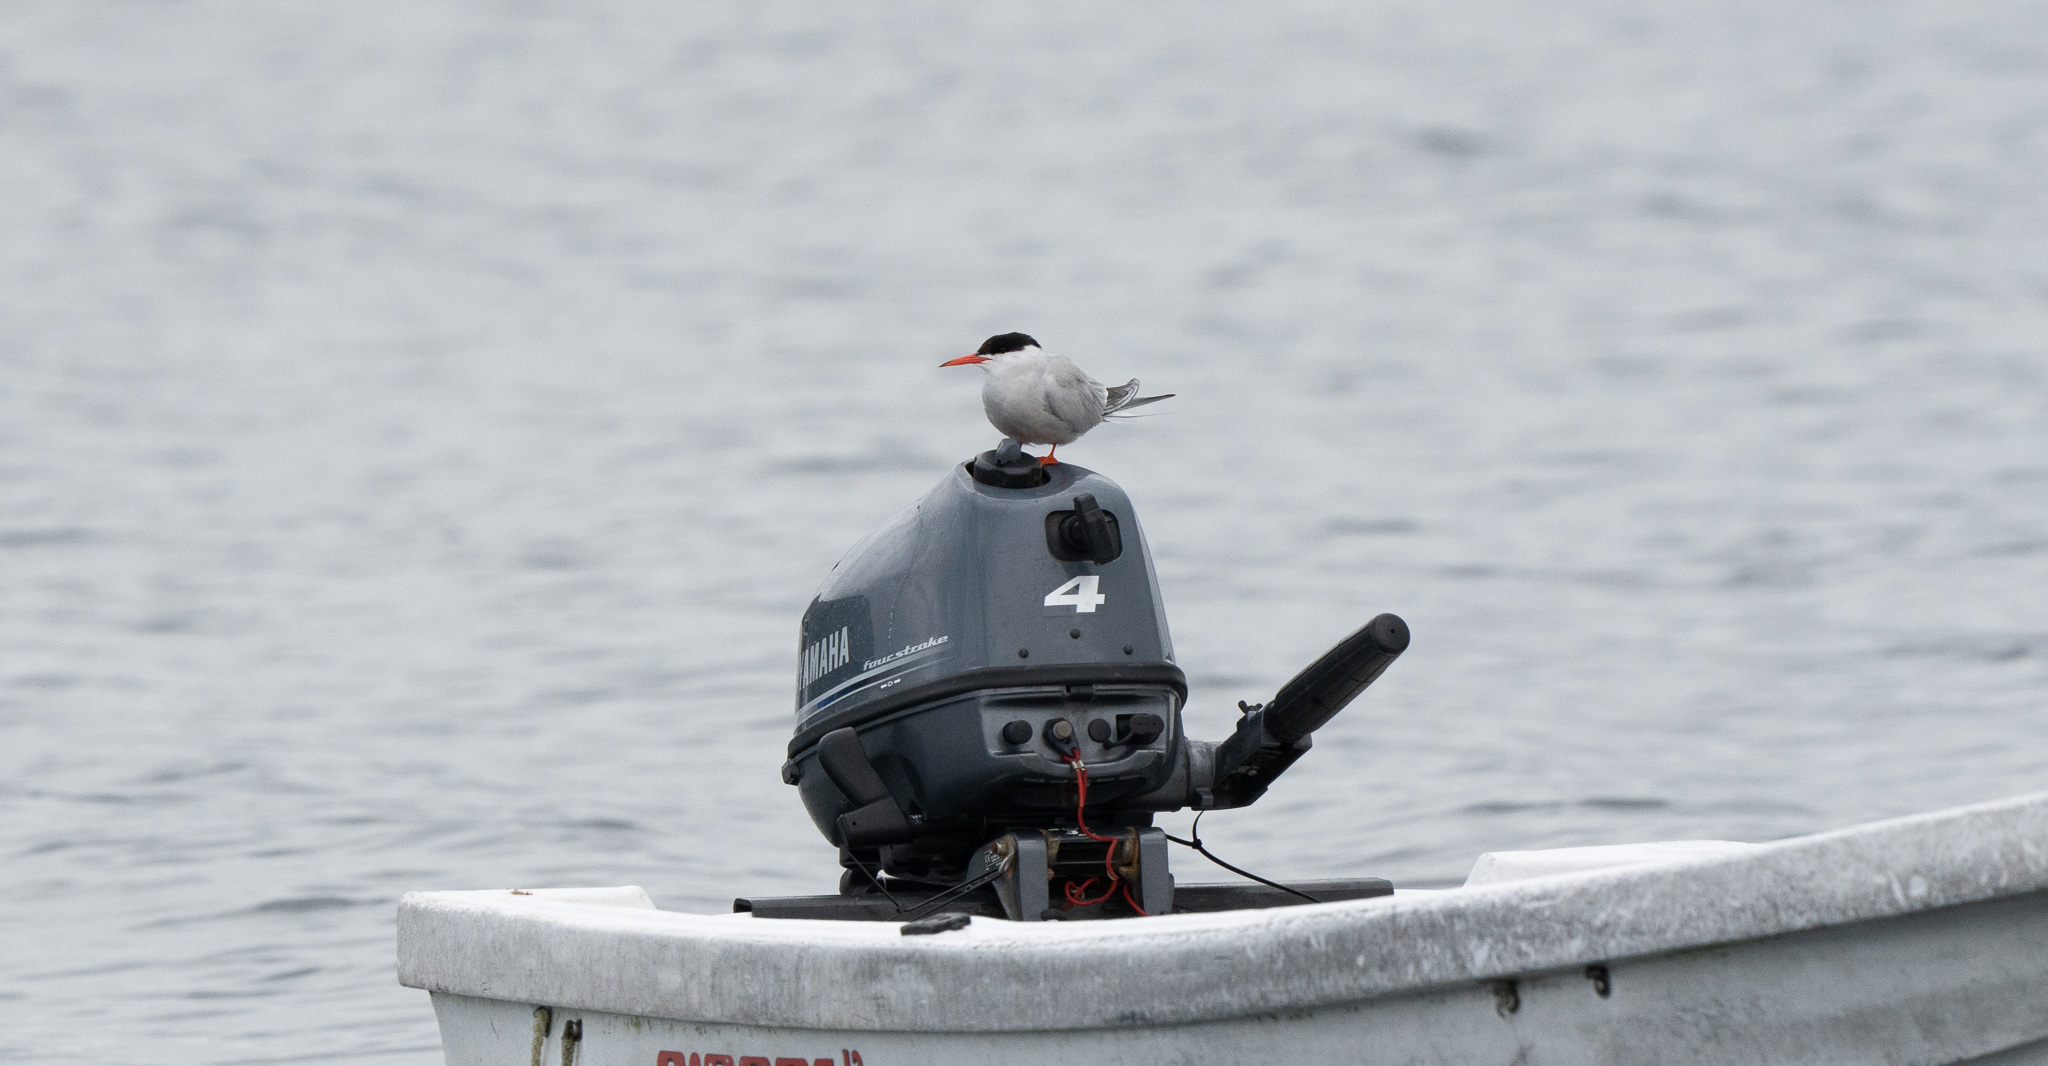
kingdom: Animalia
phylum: Chordata
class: Aves
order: Charadriiformes
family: Laridae
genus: Sterna
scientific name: Sterna hirundo
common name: Common tern
